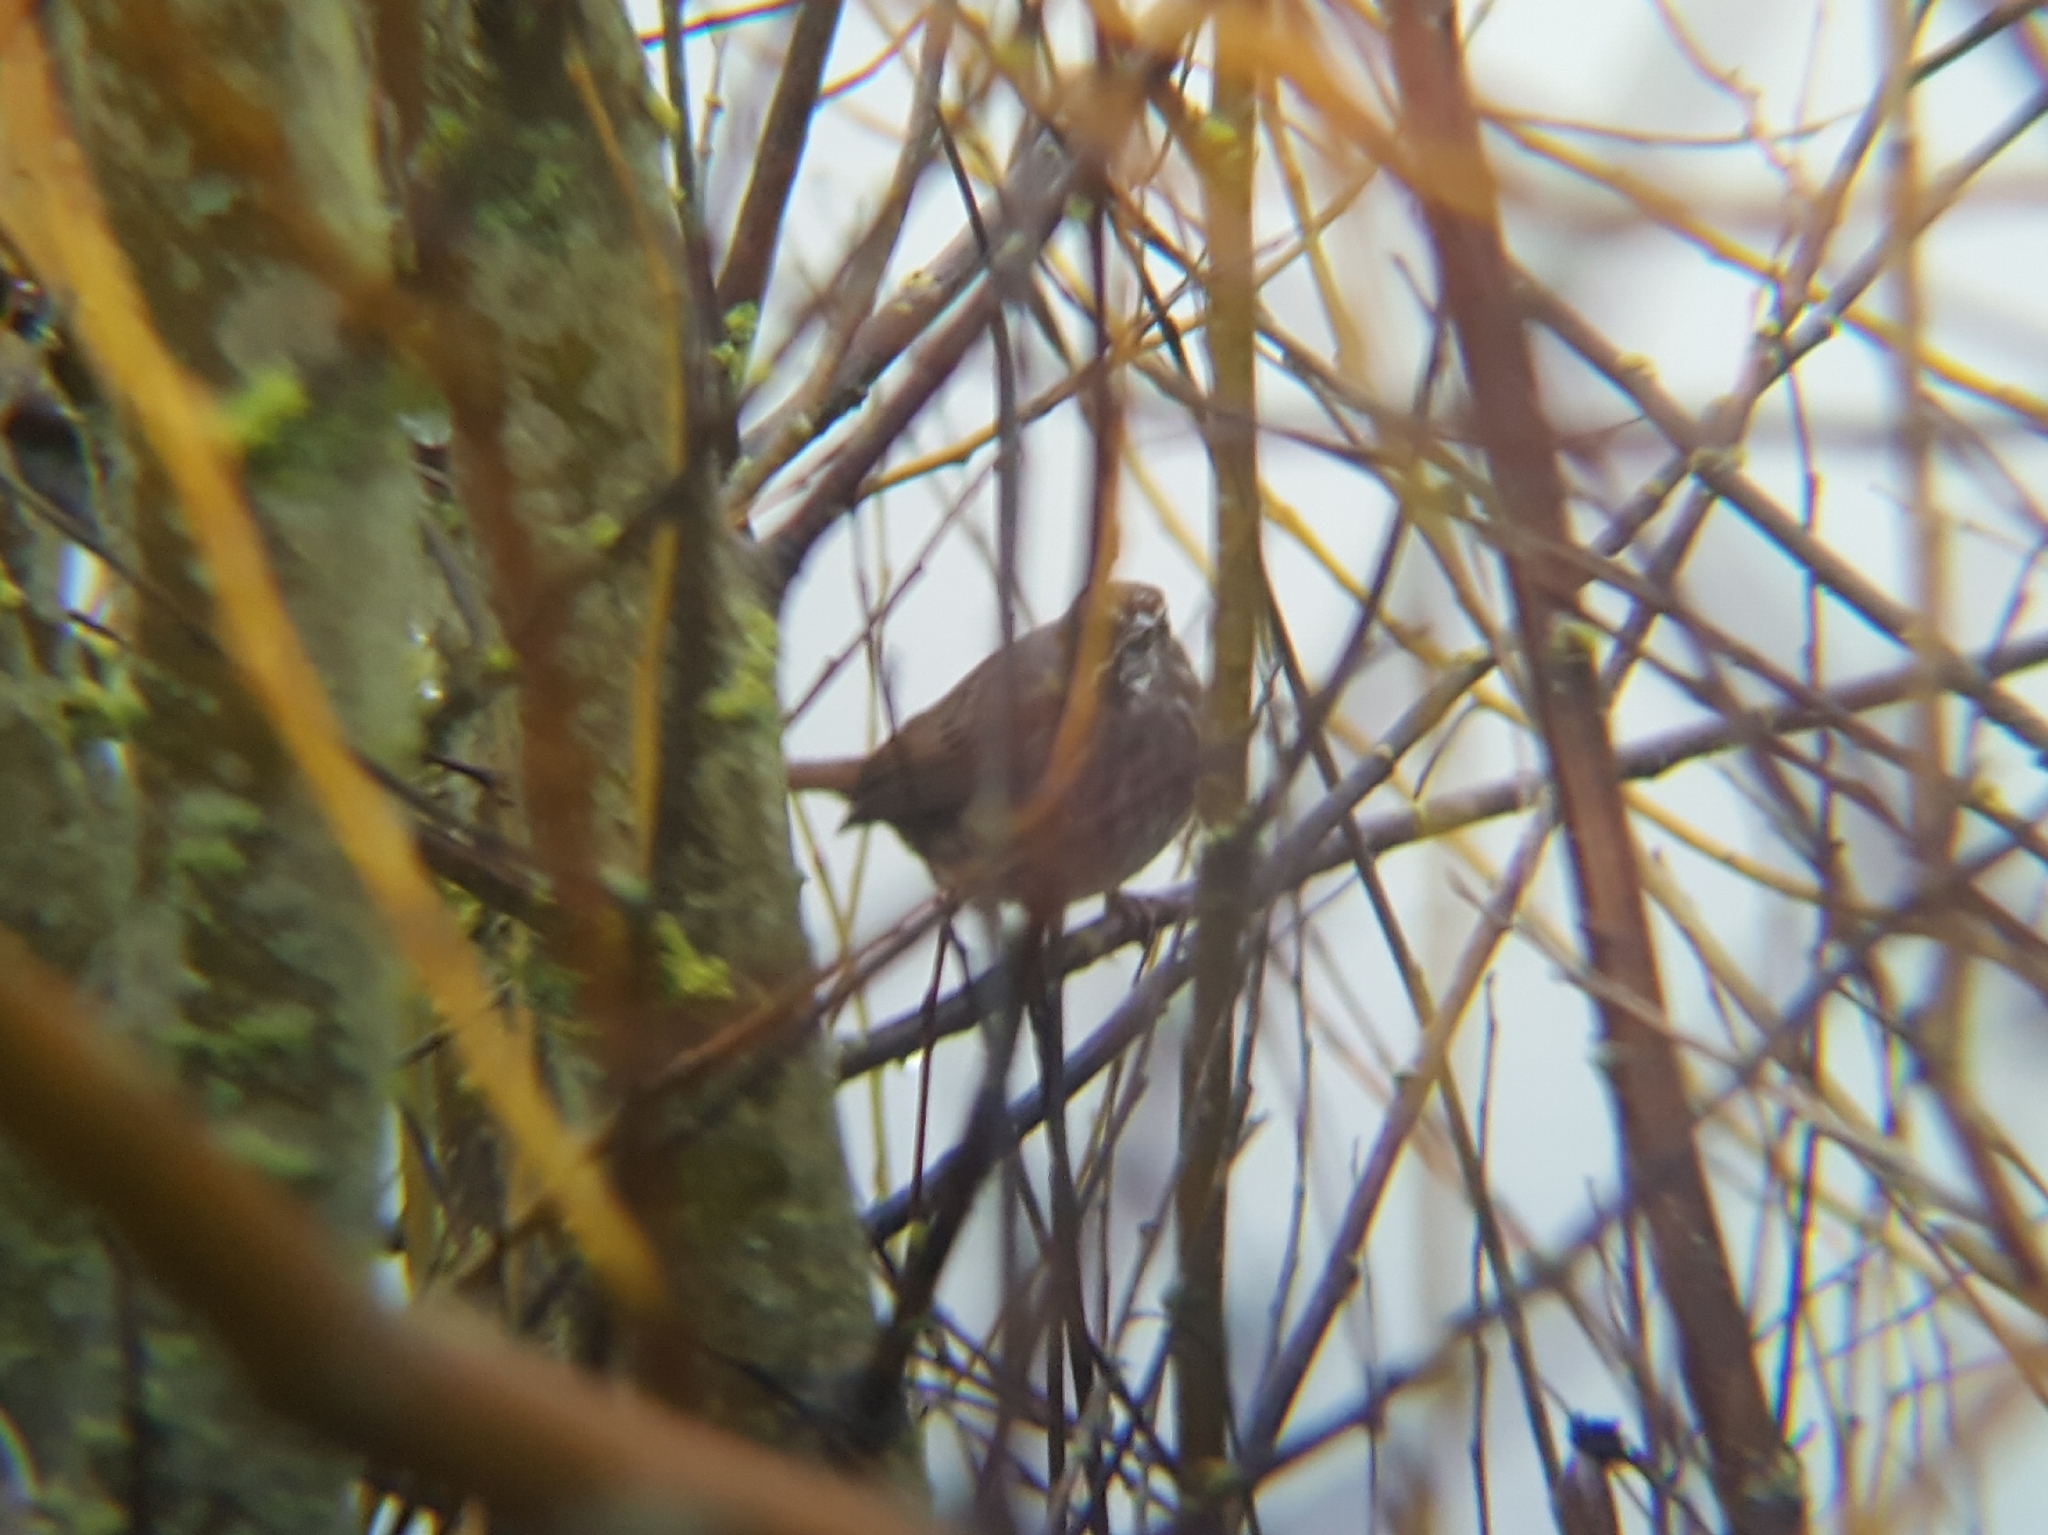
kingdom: Animalia
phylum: Chordata
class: Aves
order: Passeriformes
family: Passerellidae
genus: Melospiza
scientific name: Melospiza melodia
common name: Song sparrow
